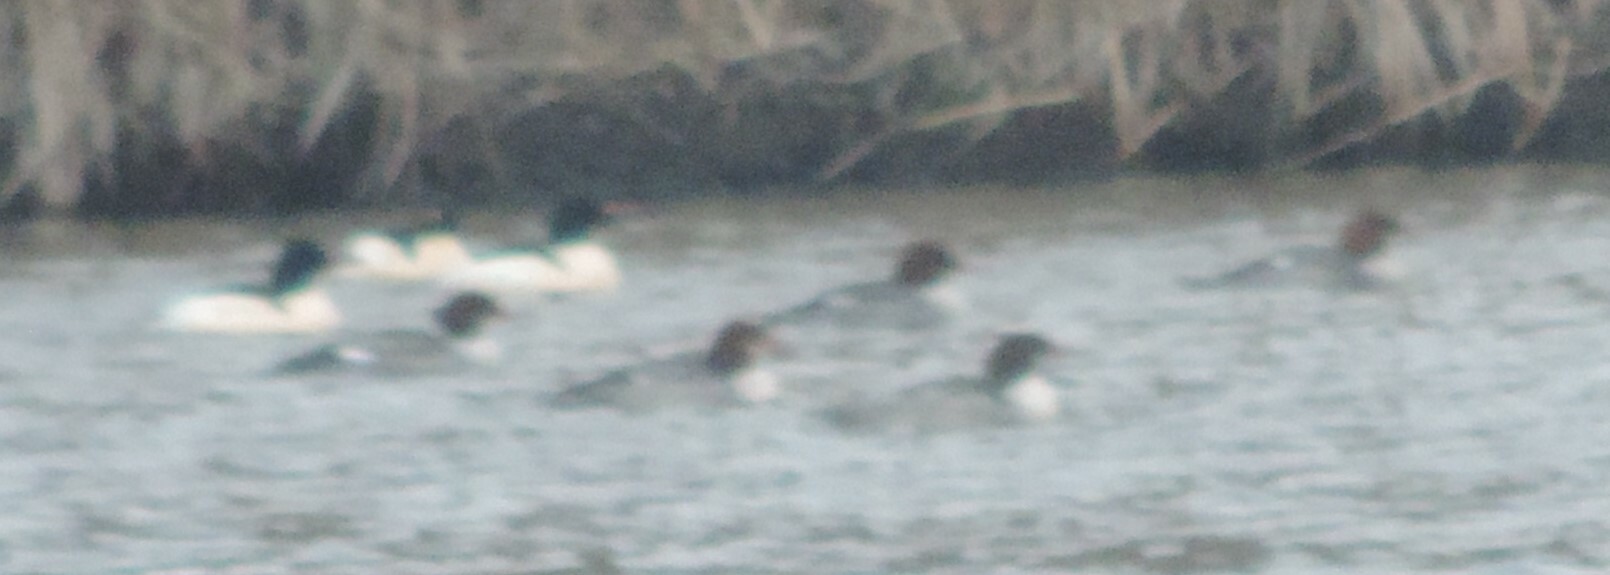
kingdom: Animalia
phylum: Chordata
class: Aves
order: Anseriformes
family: Anatidae
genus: Mergus
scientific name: Mergus merganser
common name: Common merganser
